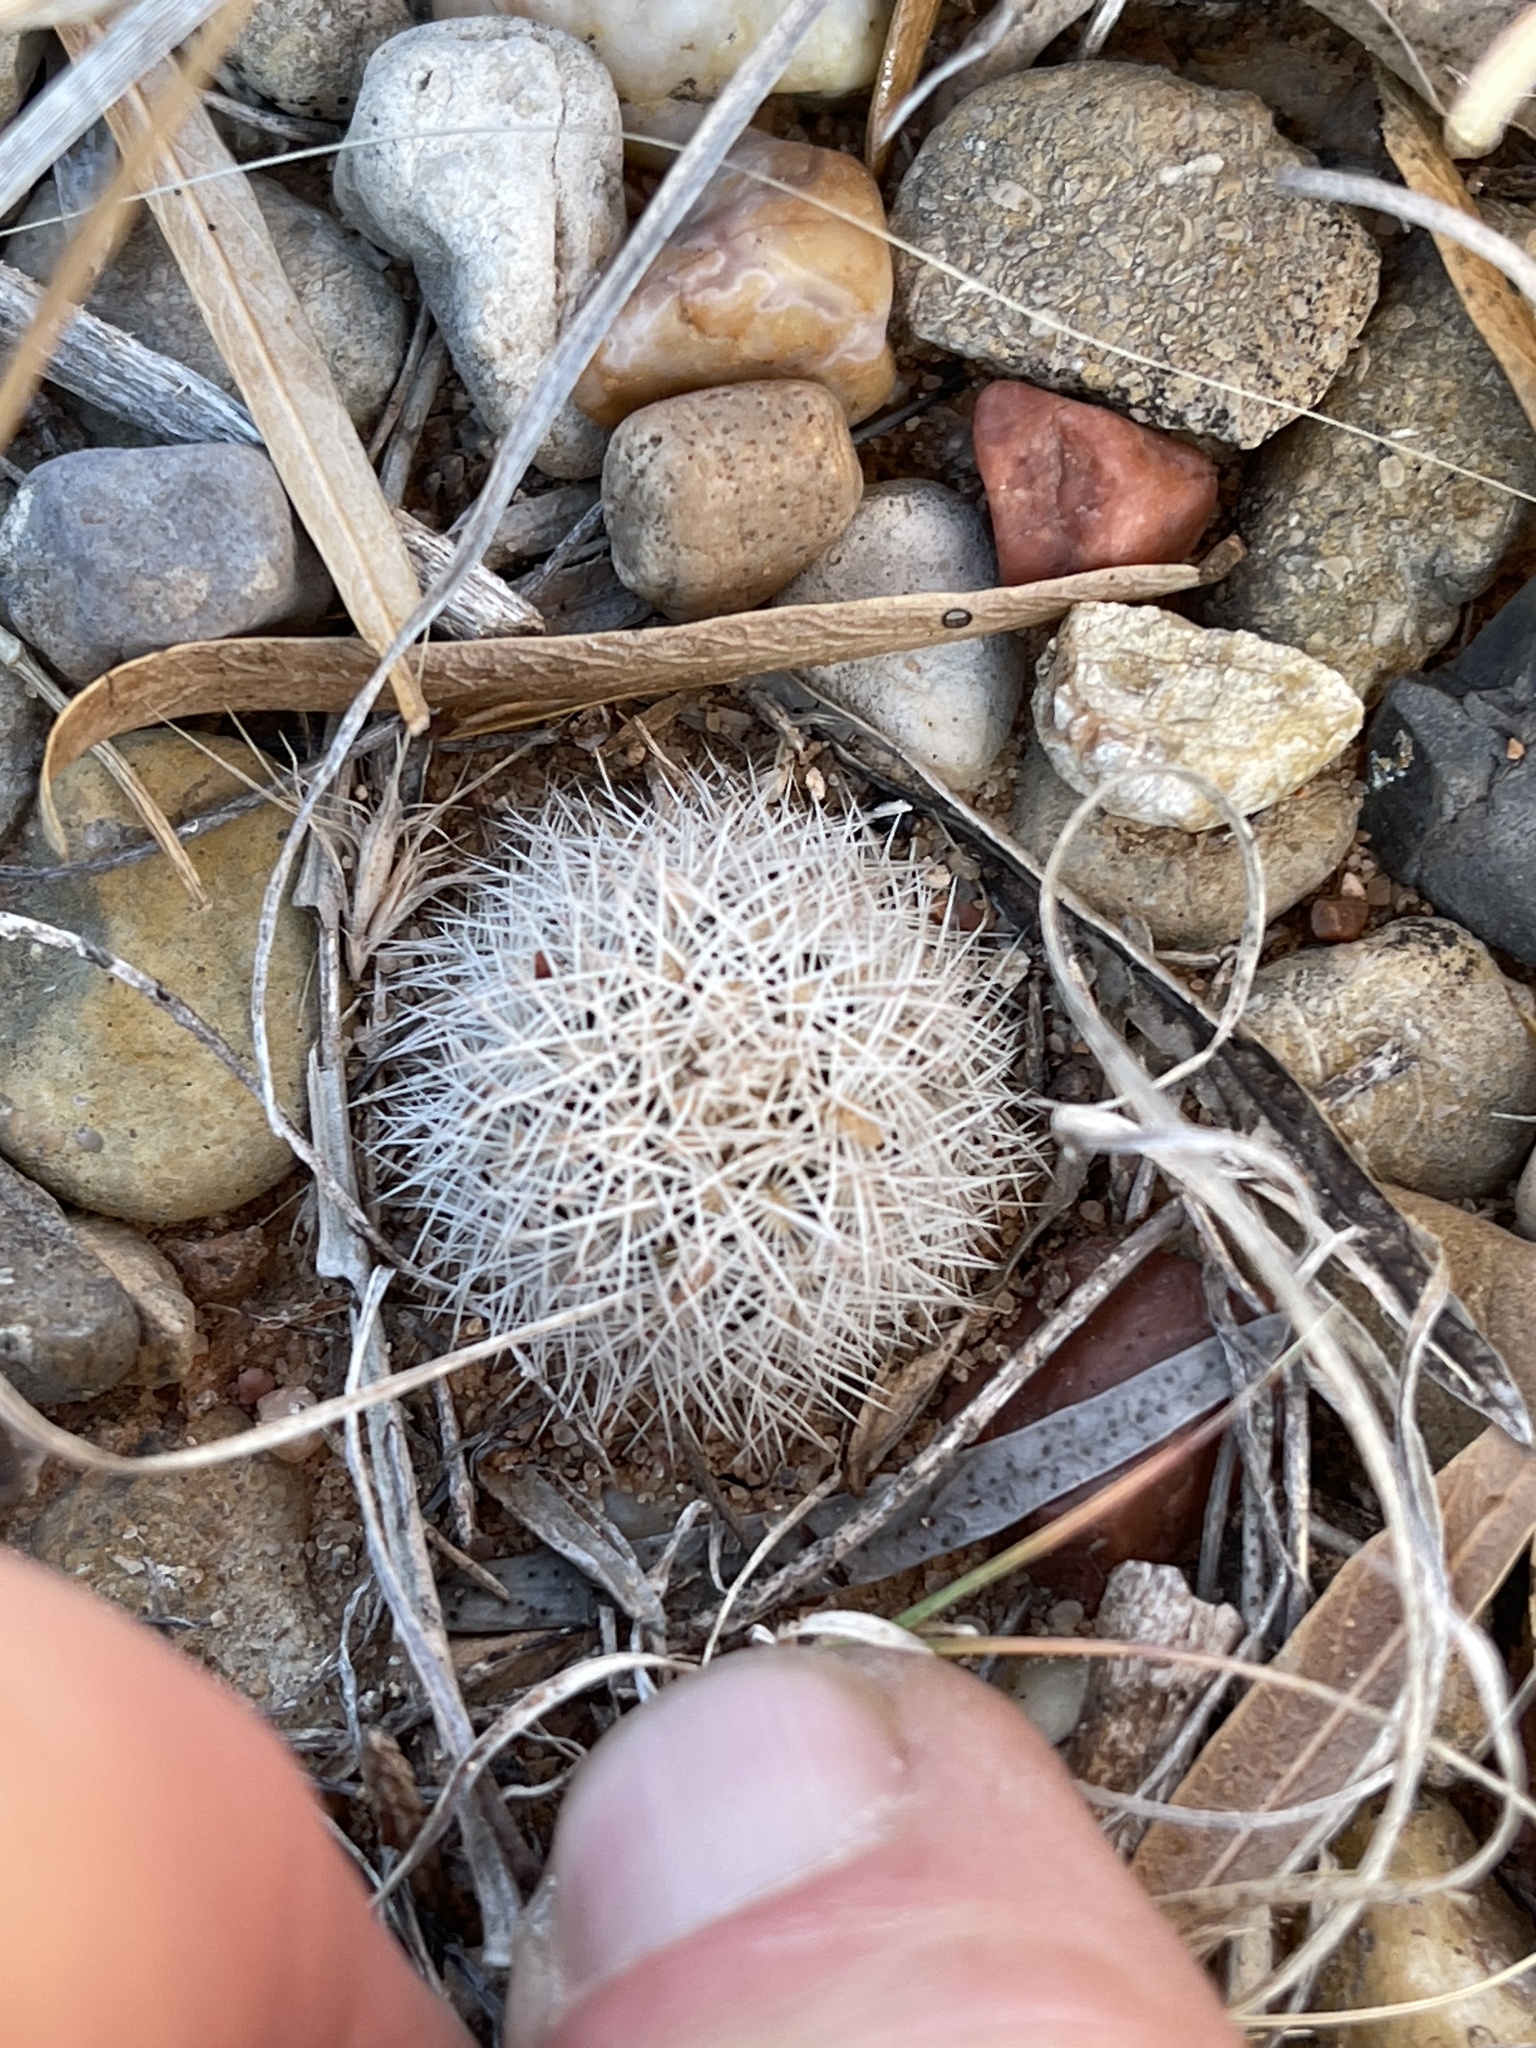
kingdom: Plantae
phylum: Tracheophyta
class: Magnoliopsida
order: Caryophyllales
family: Cactaceae
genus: Echinocereus
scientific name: Echinocereus reichenbachii
